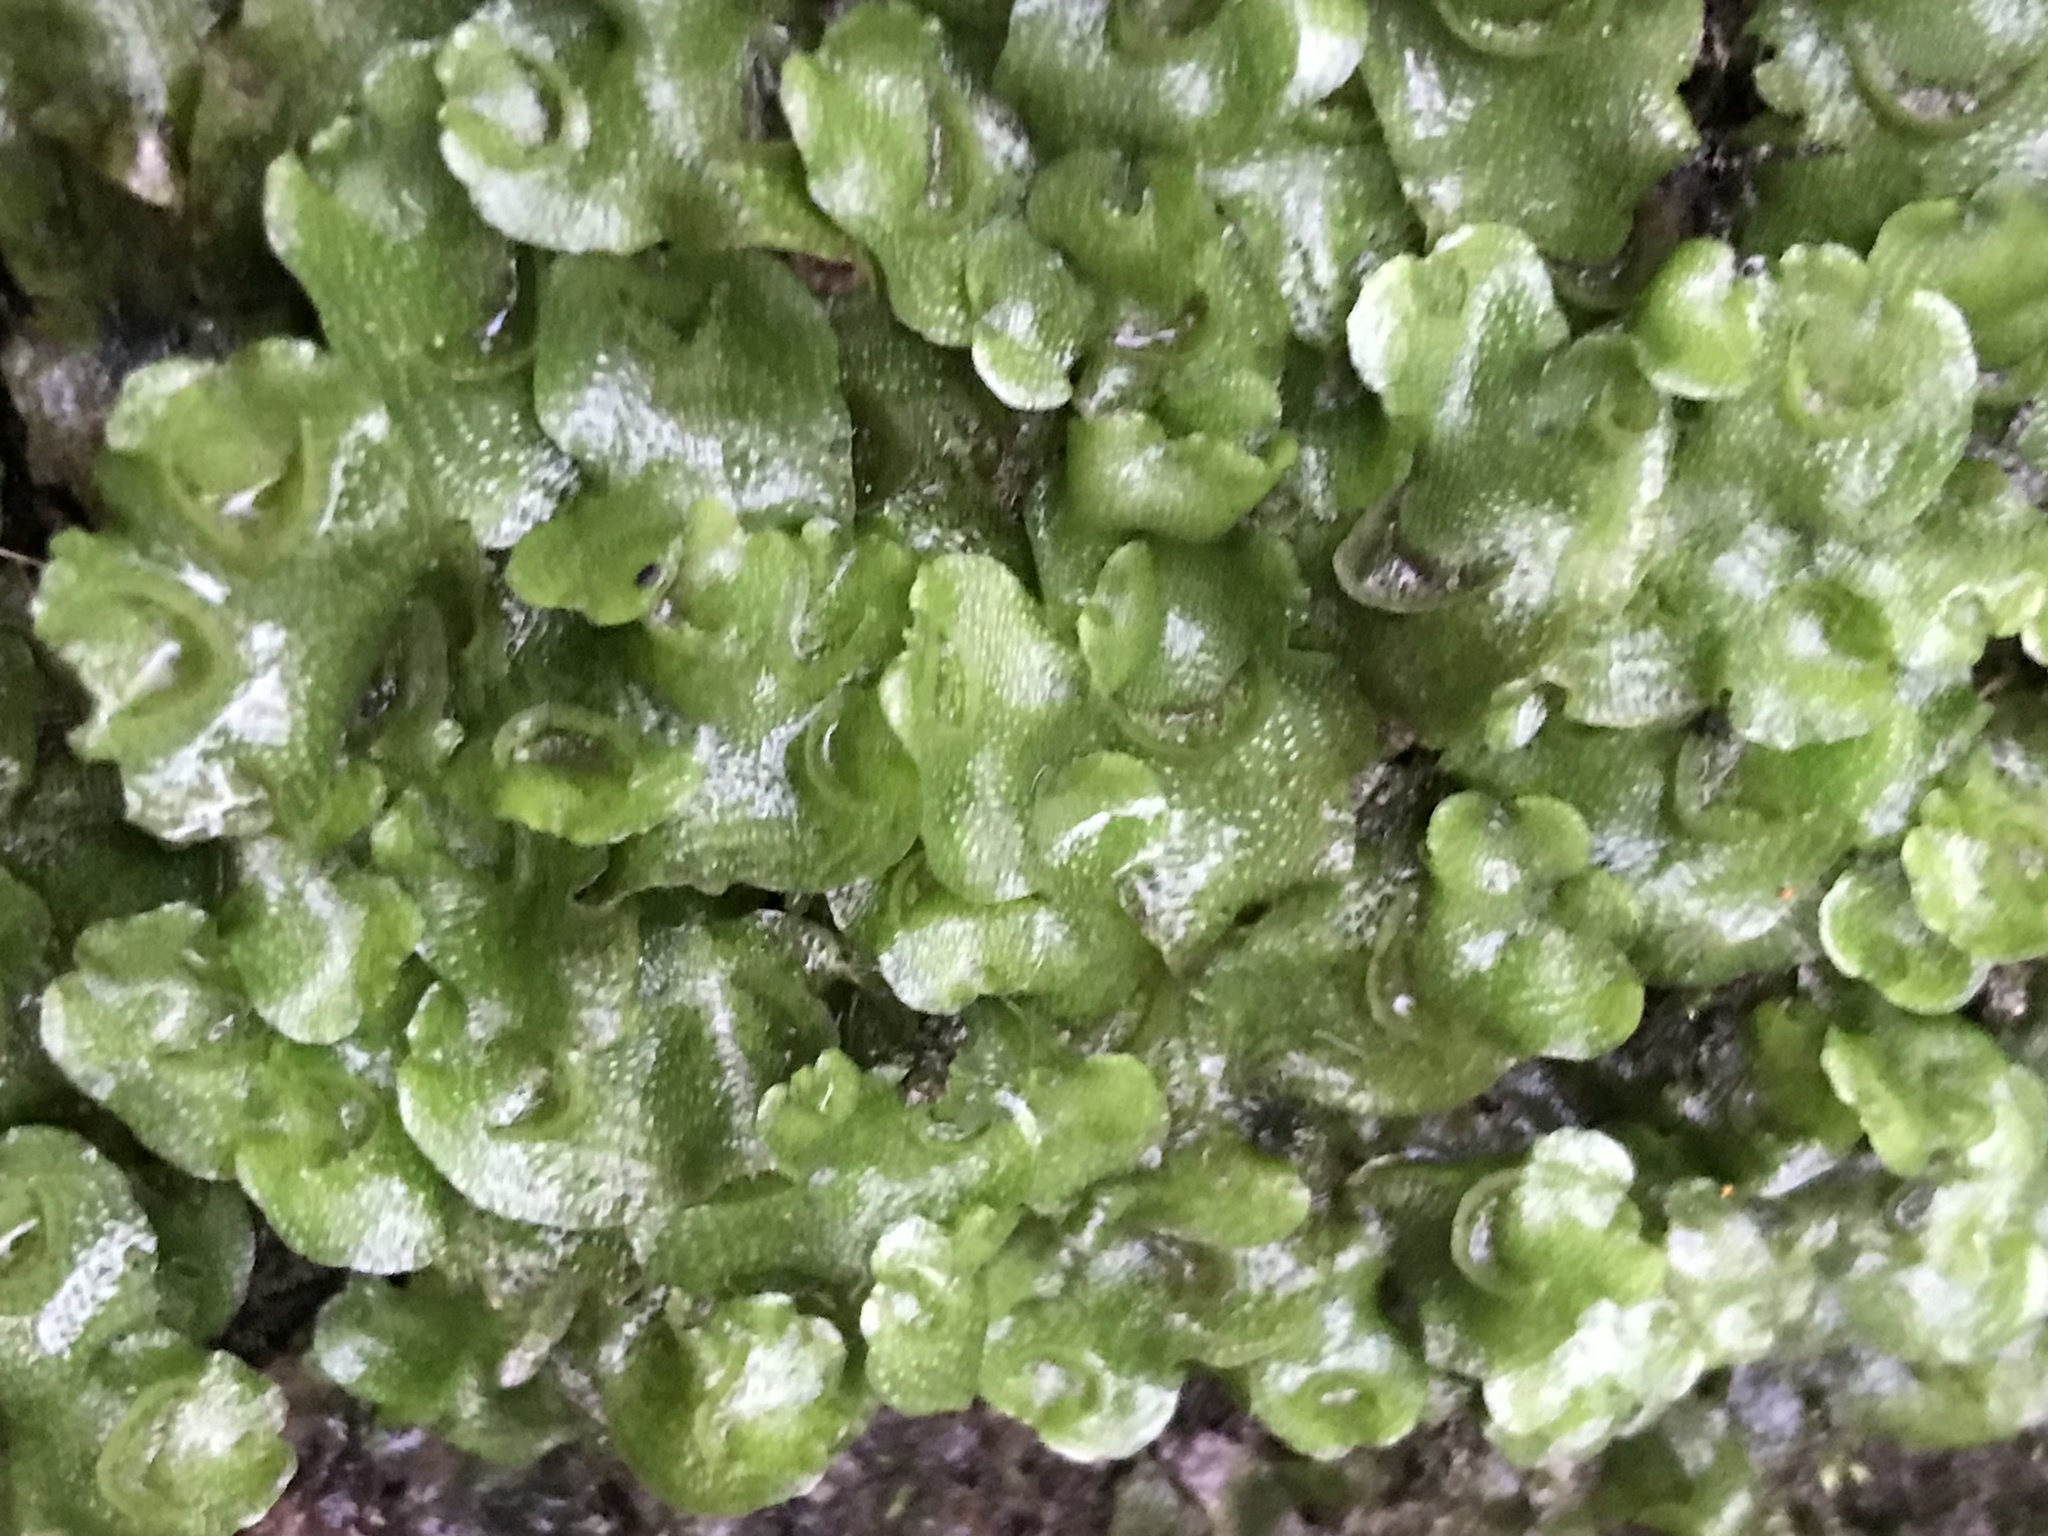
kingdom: Plantae
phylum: Marchantiophyta
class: Marchantiopsida
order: Lunulariales
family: Lunulariaceae
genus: Lunularia
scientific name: Lunularia cruciata
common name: Crescent-cup liverwort
